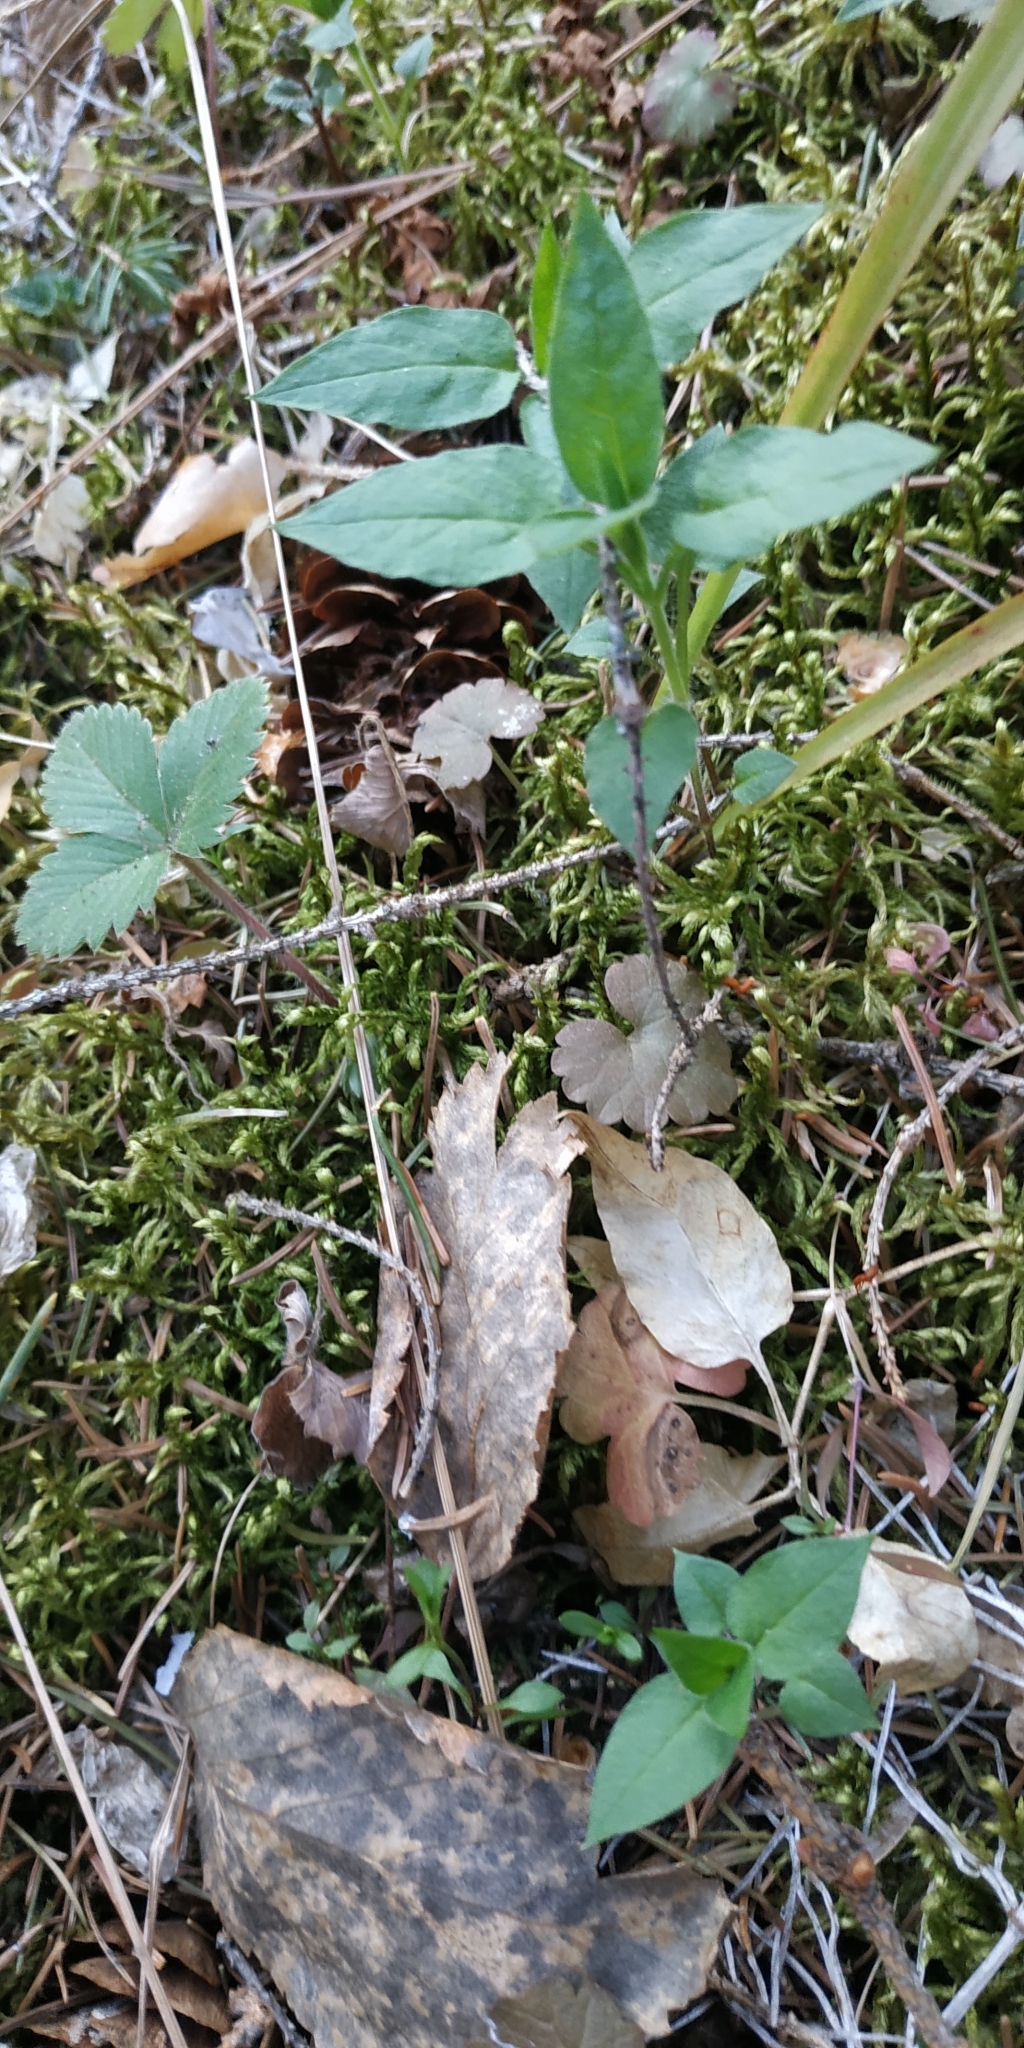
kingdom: Plantae
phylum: Tracheophyta
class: Magnoliopsida
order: Caryophyllales
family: Caryophyllaceae
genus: Stellaria
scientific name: Stellaria bungeana
